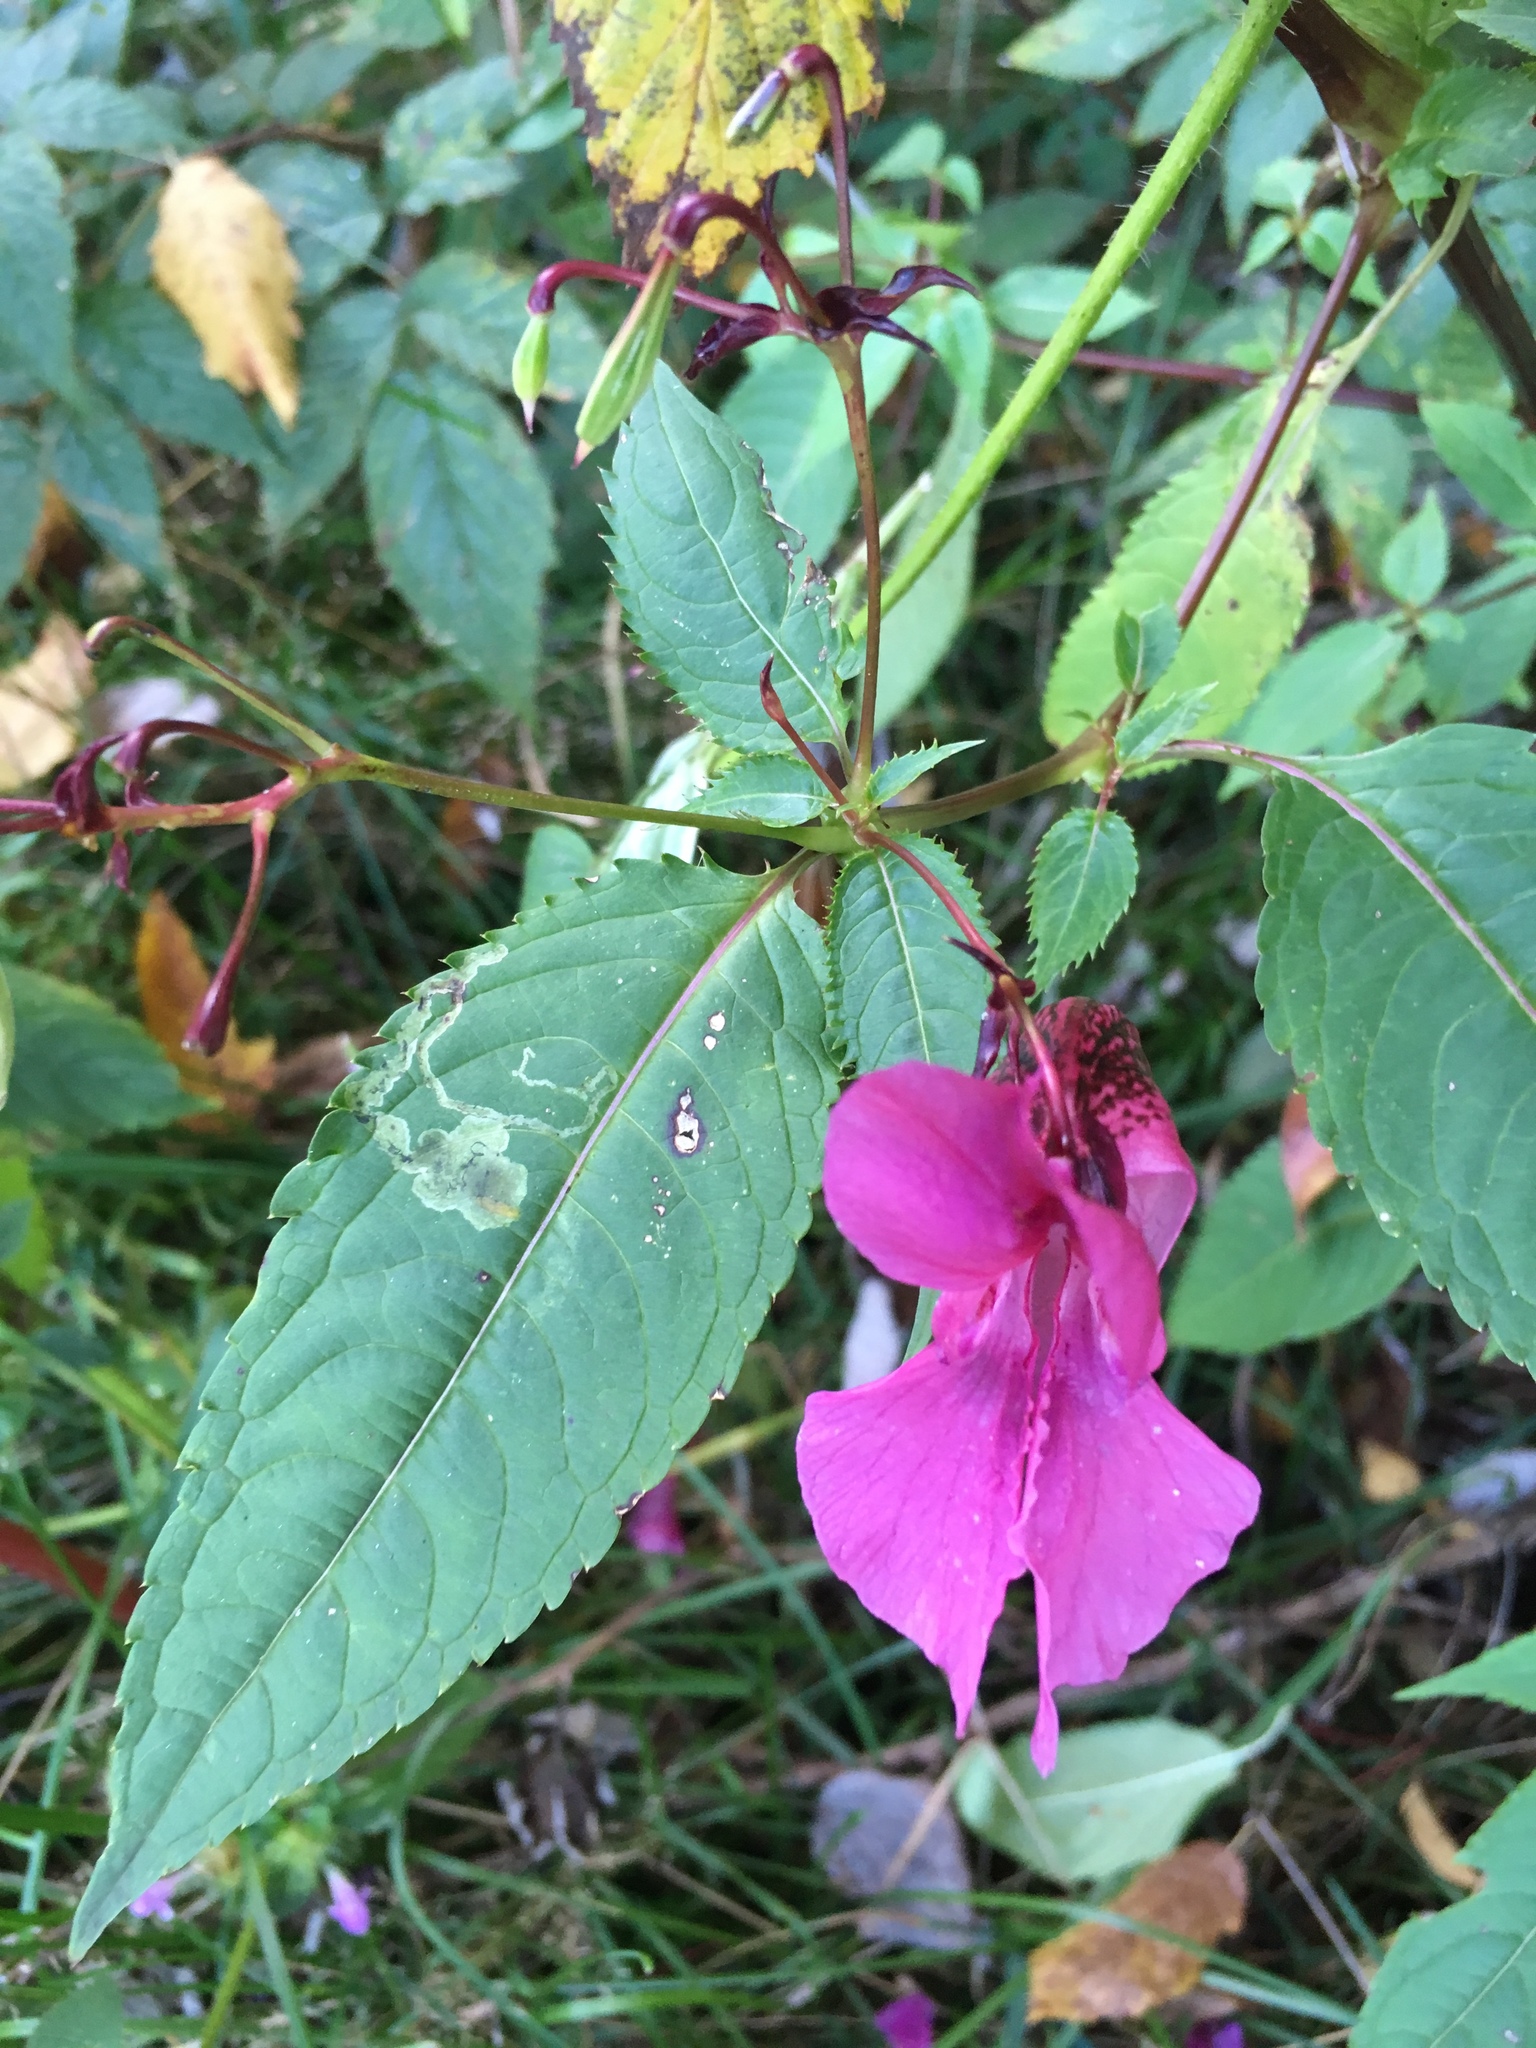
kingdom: Plantae
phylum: Tracheophyta
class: Magnoliopsida
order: Ericales
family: Balsaminaceae
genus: Impatiens
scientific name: Impatiens glandulifera
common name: Himalayan balsam
